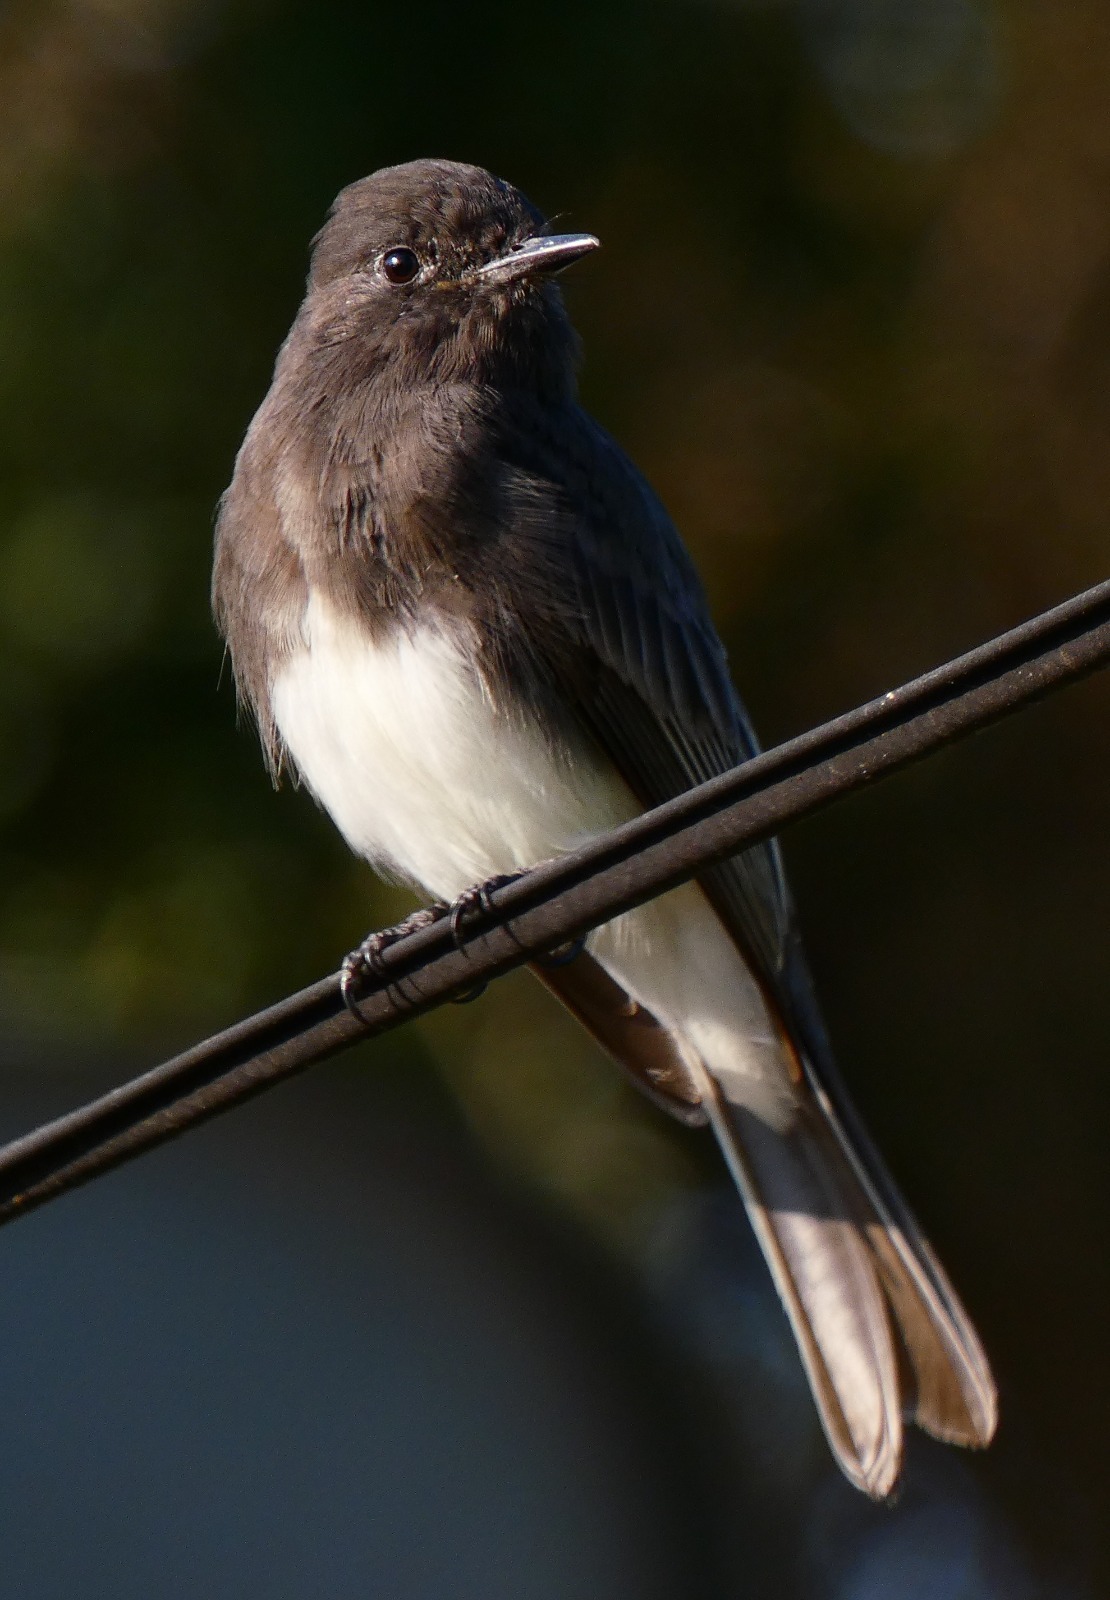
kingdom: Animalia
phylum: Chordata
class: Aves
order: Passeriformes
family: Tyrannidae
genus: Sayornis
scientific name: Sayornis nigricans
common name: Black phoebe
